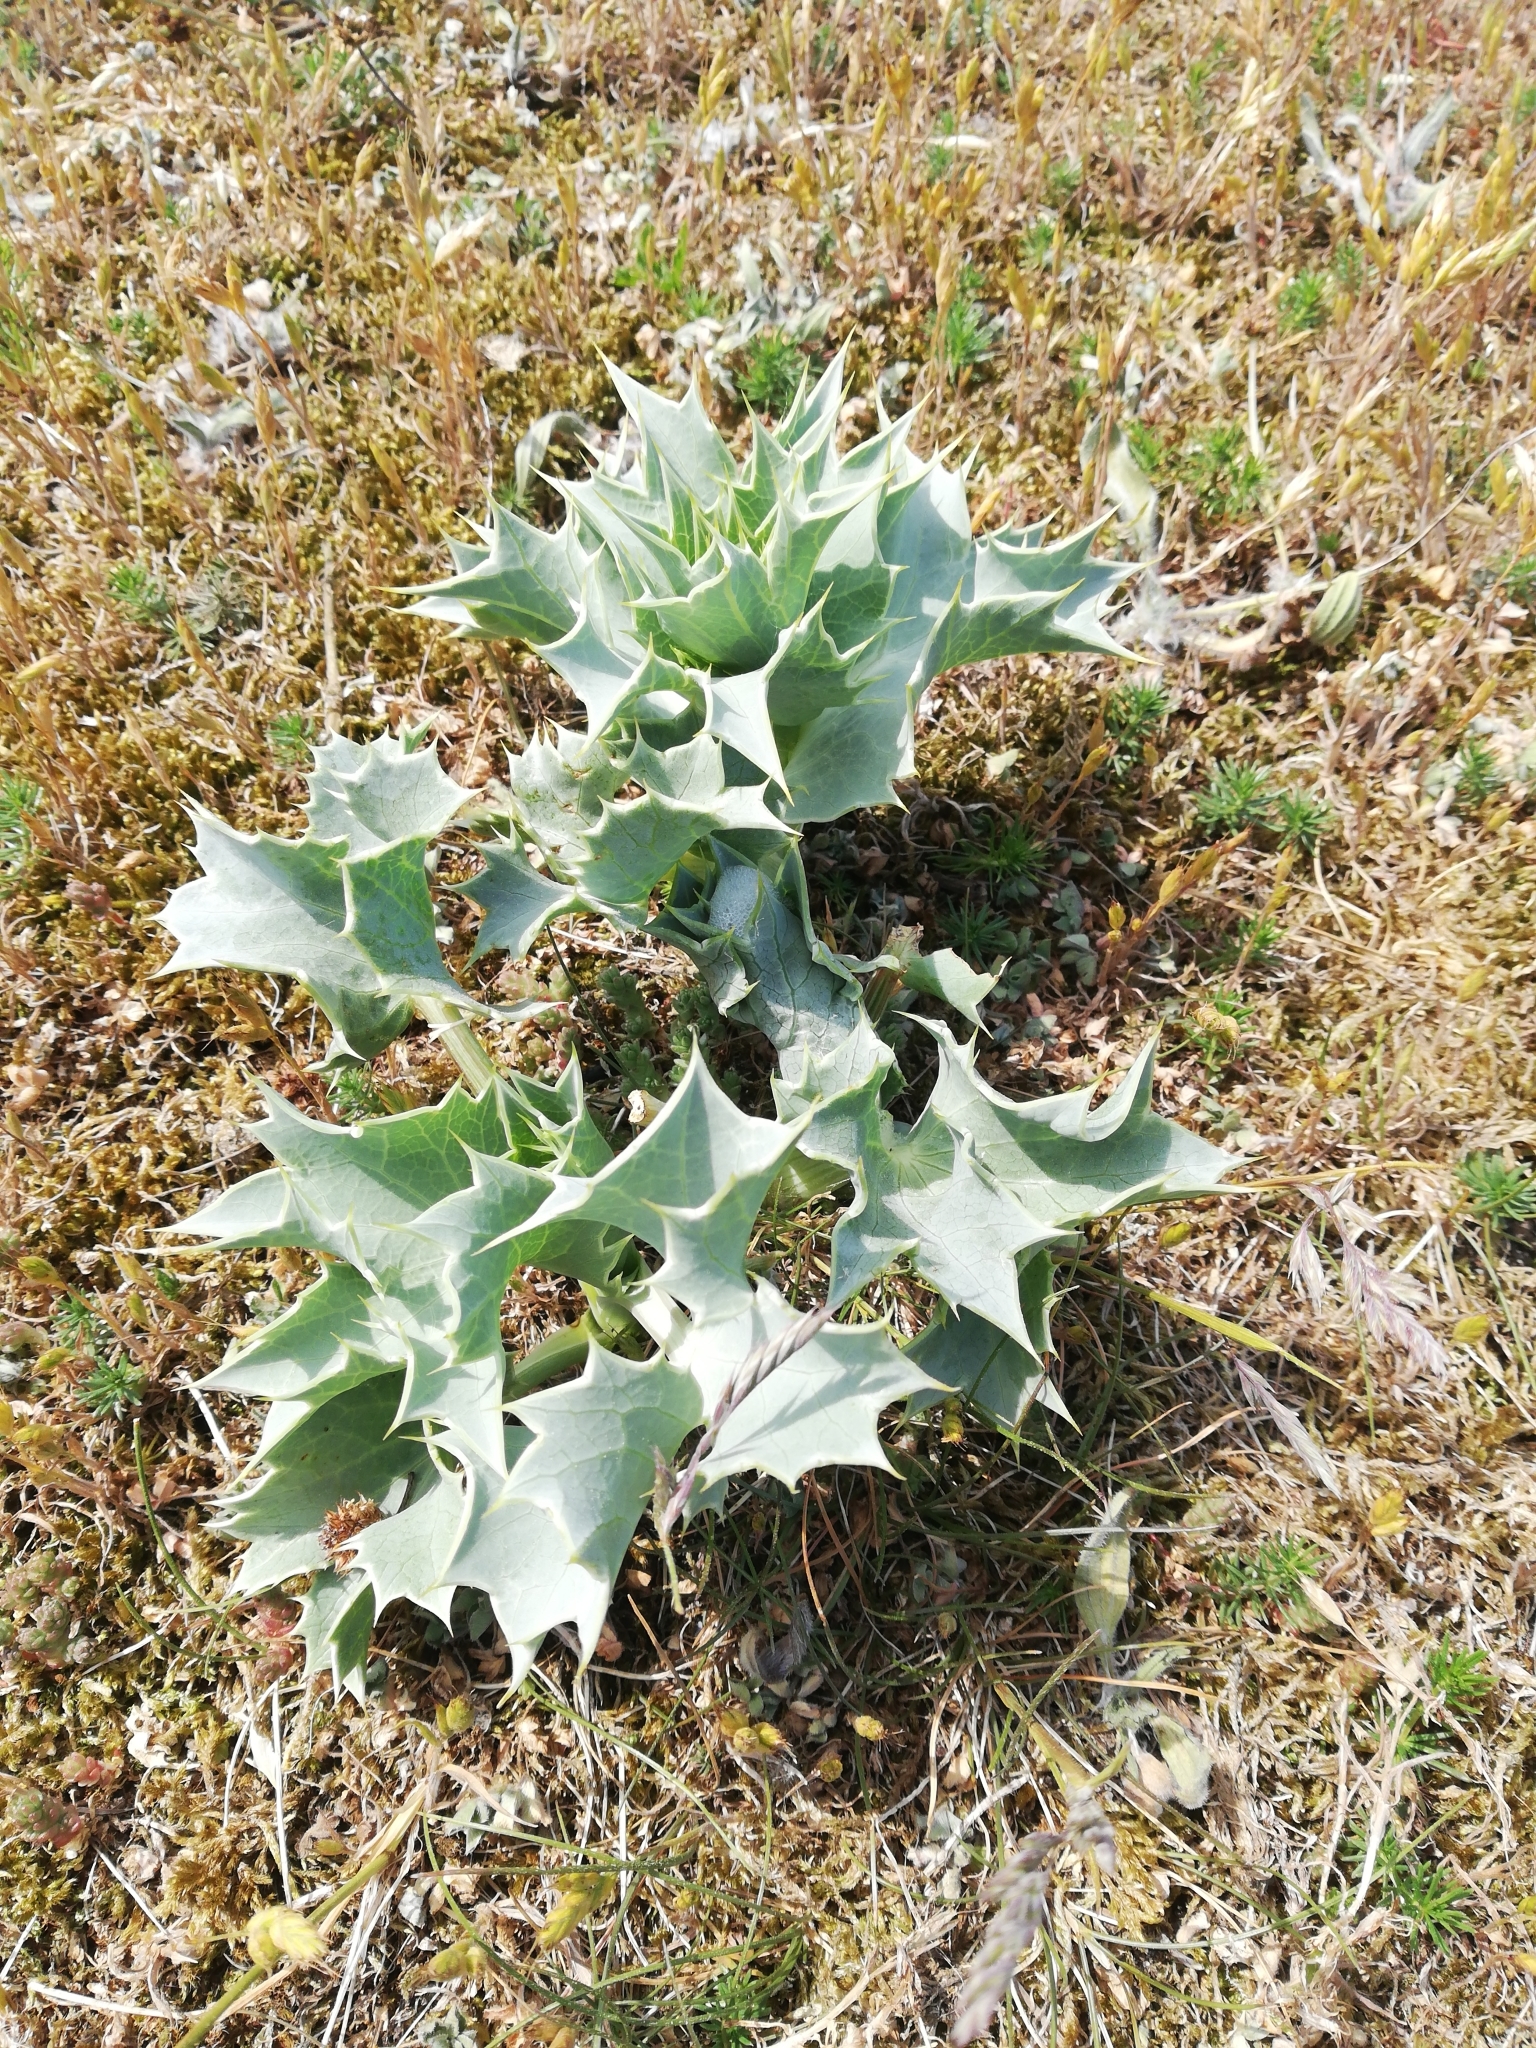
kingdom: Plantae
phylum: Tracheophyta
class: Magnoliopsida
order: Apiales
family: Apiaceae
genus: Eryngium
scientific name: Eryngium maritimum
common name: Sea-holly
